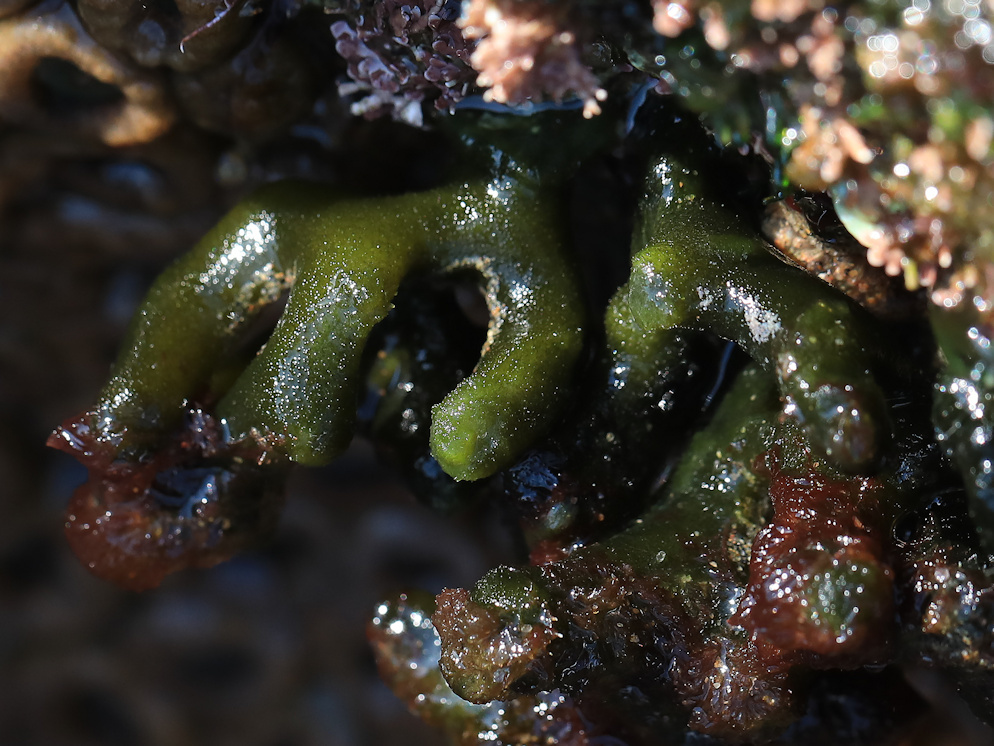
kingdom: Plantae
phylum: Chlorophyta
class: Ulvophyceae
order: Bryopsidales
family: Codiaceae
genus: Codium
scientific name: Codium prostratum
